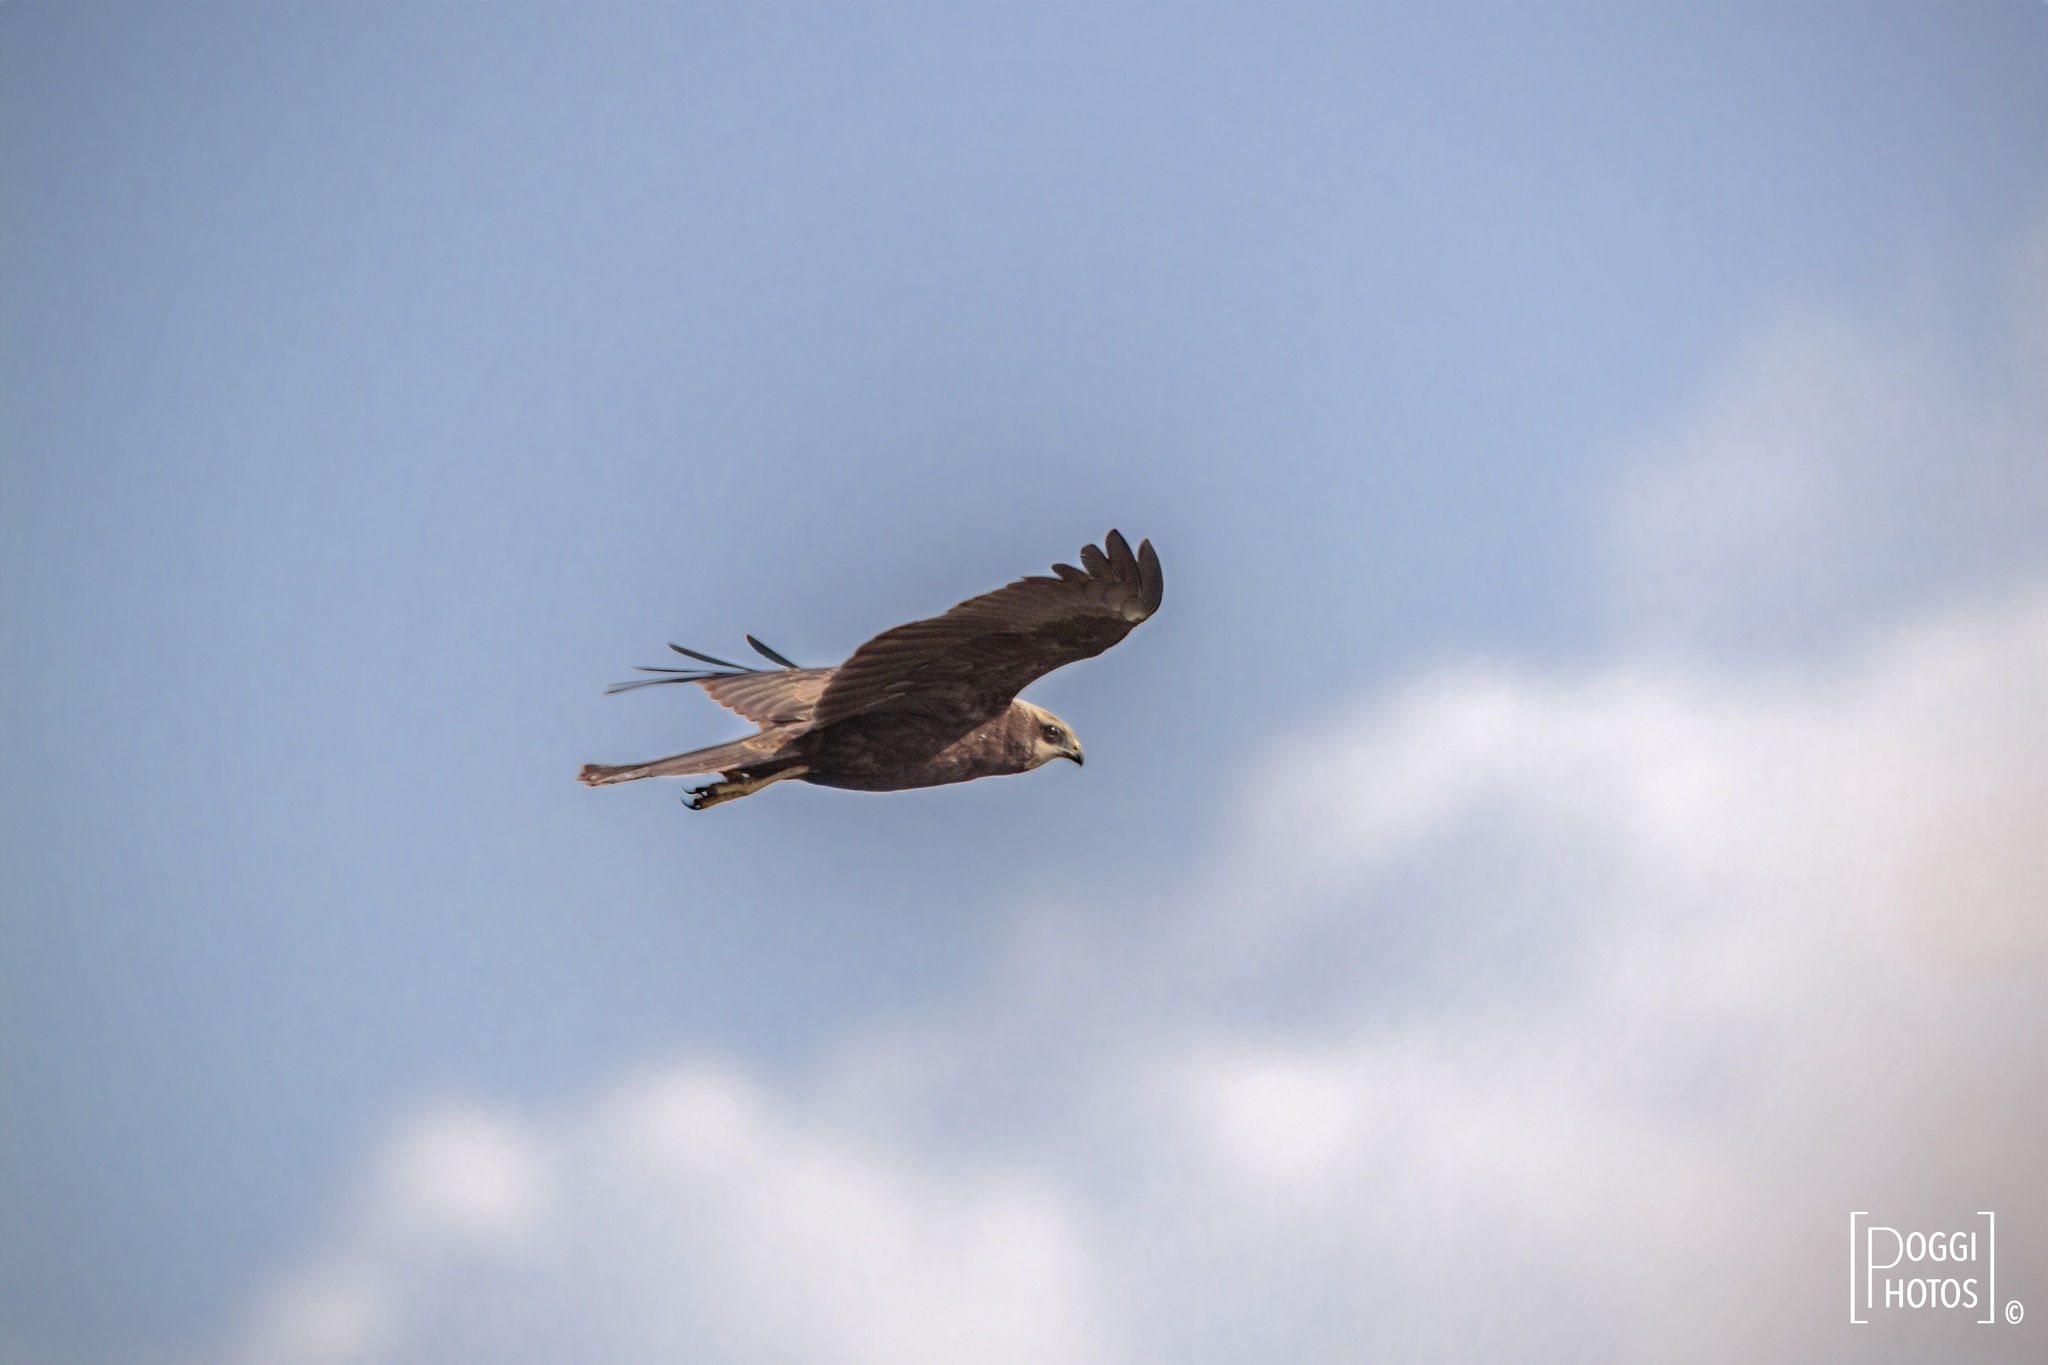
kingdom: Animalia
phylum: Chordata
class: Aves
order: Accipitriformes
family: Accipitridae
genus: Circus
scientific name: Circus aeruginosus
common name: Western marsh harrier
